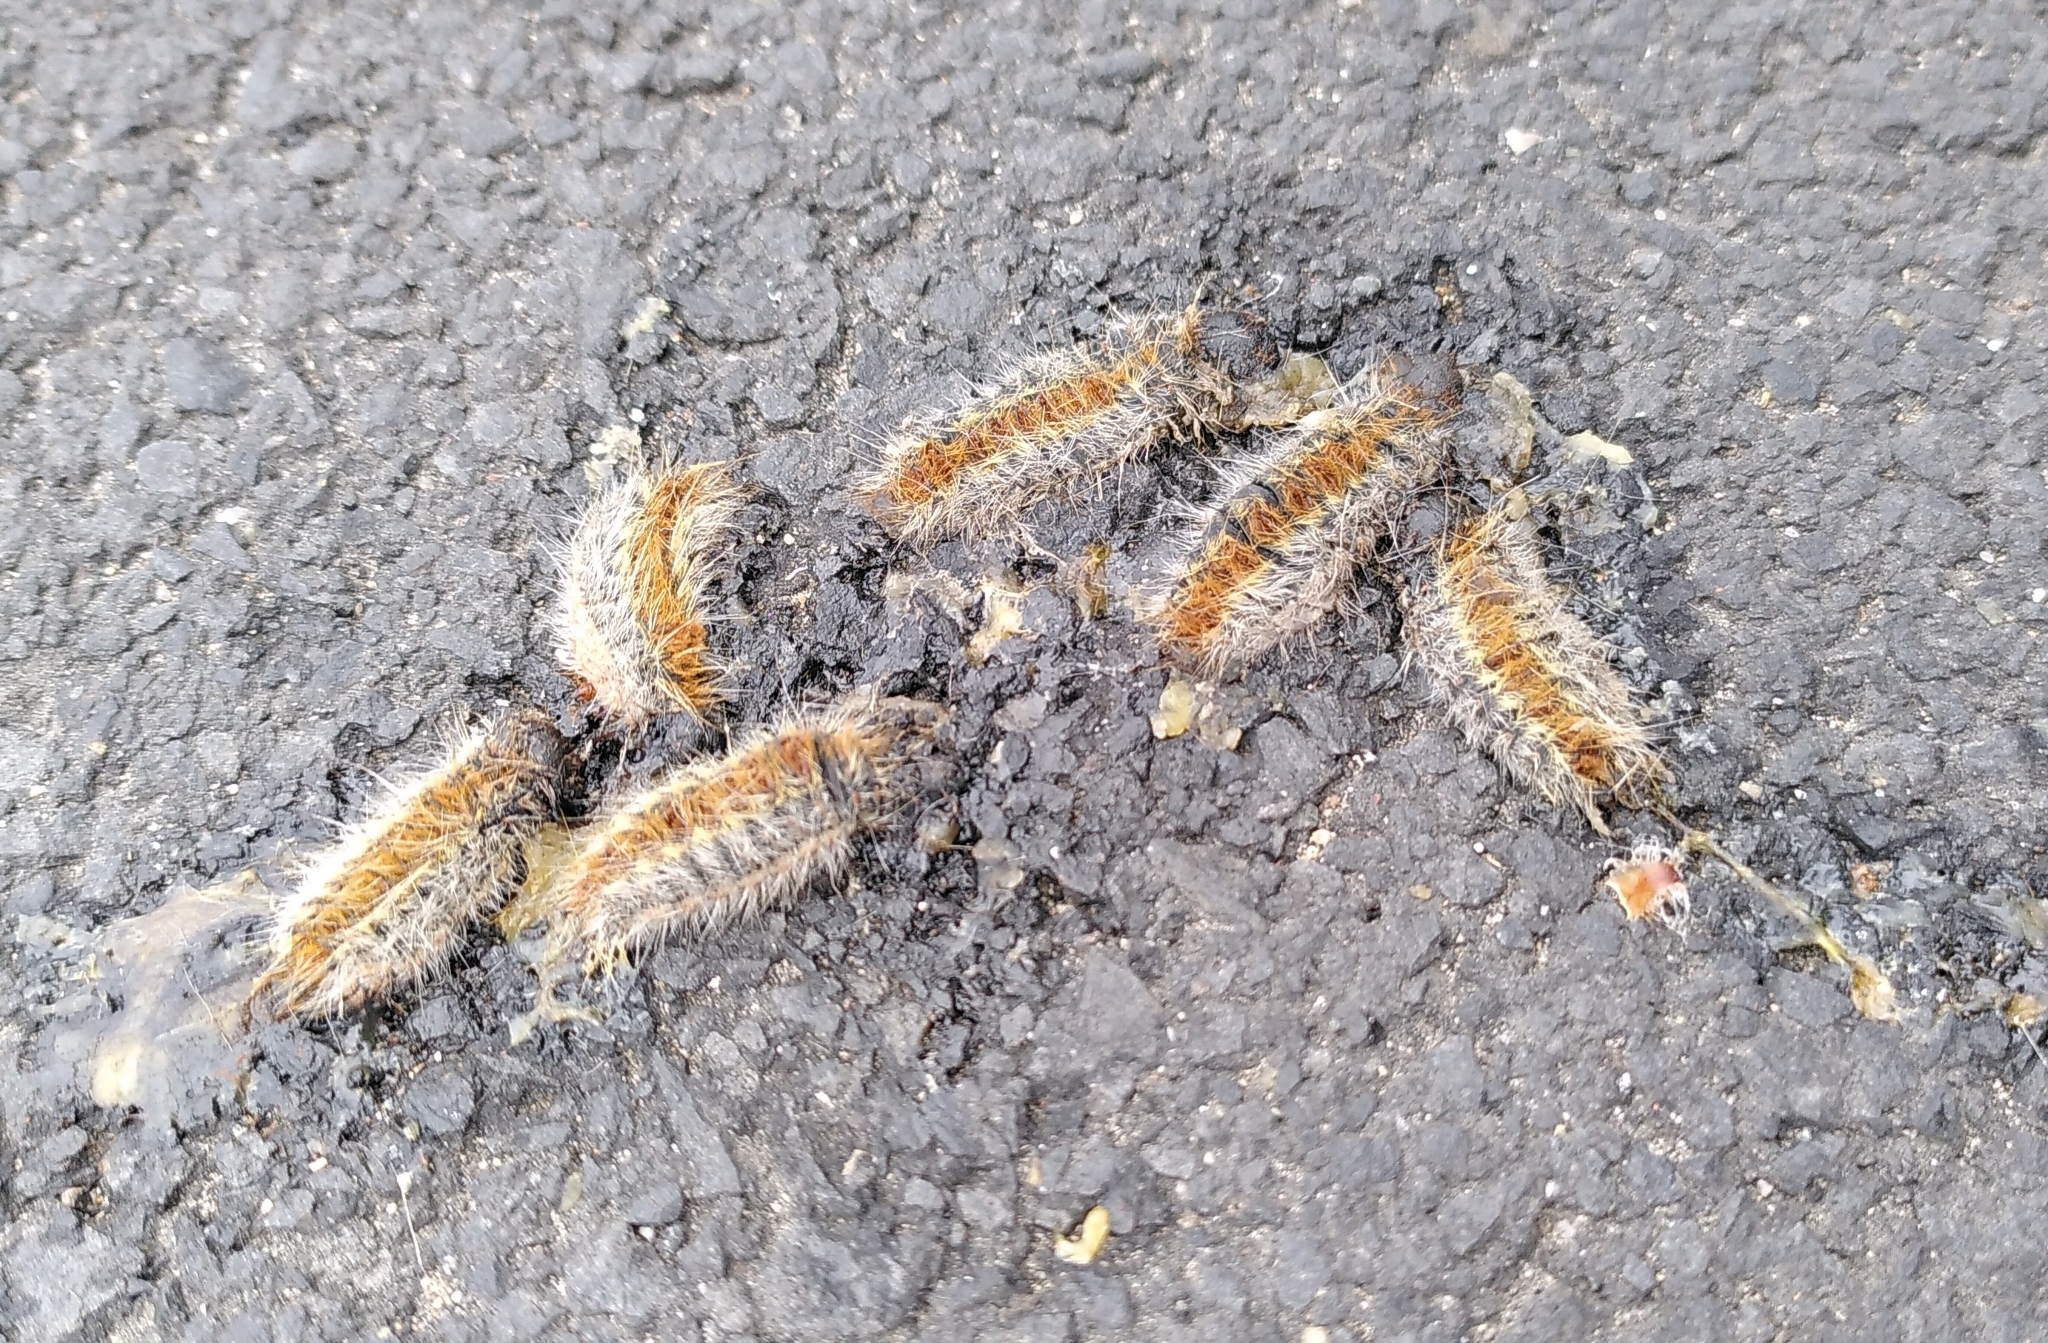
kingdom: Animalia
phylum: Arthropoda
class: Insecta
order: Lepidoptera
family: Notodontidae
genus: Thaumetopoea
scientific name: Thaumetopoea pityocampa
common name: Pine processionary
